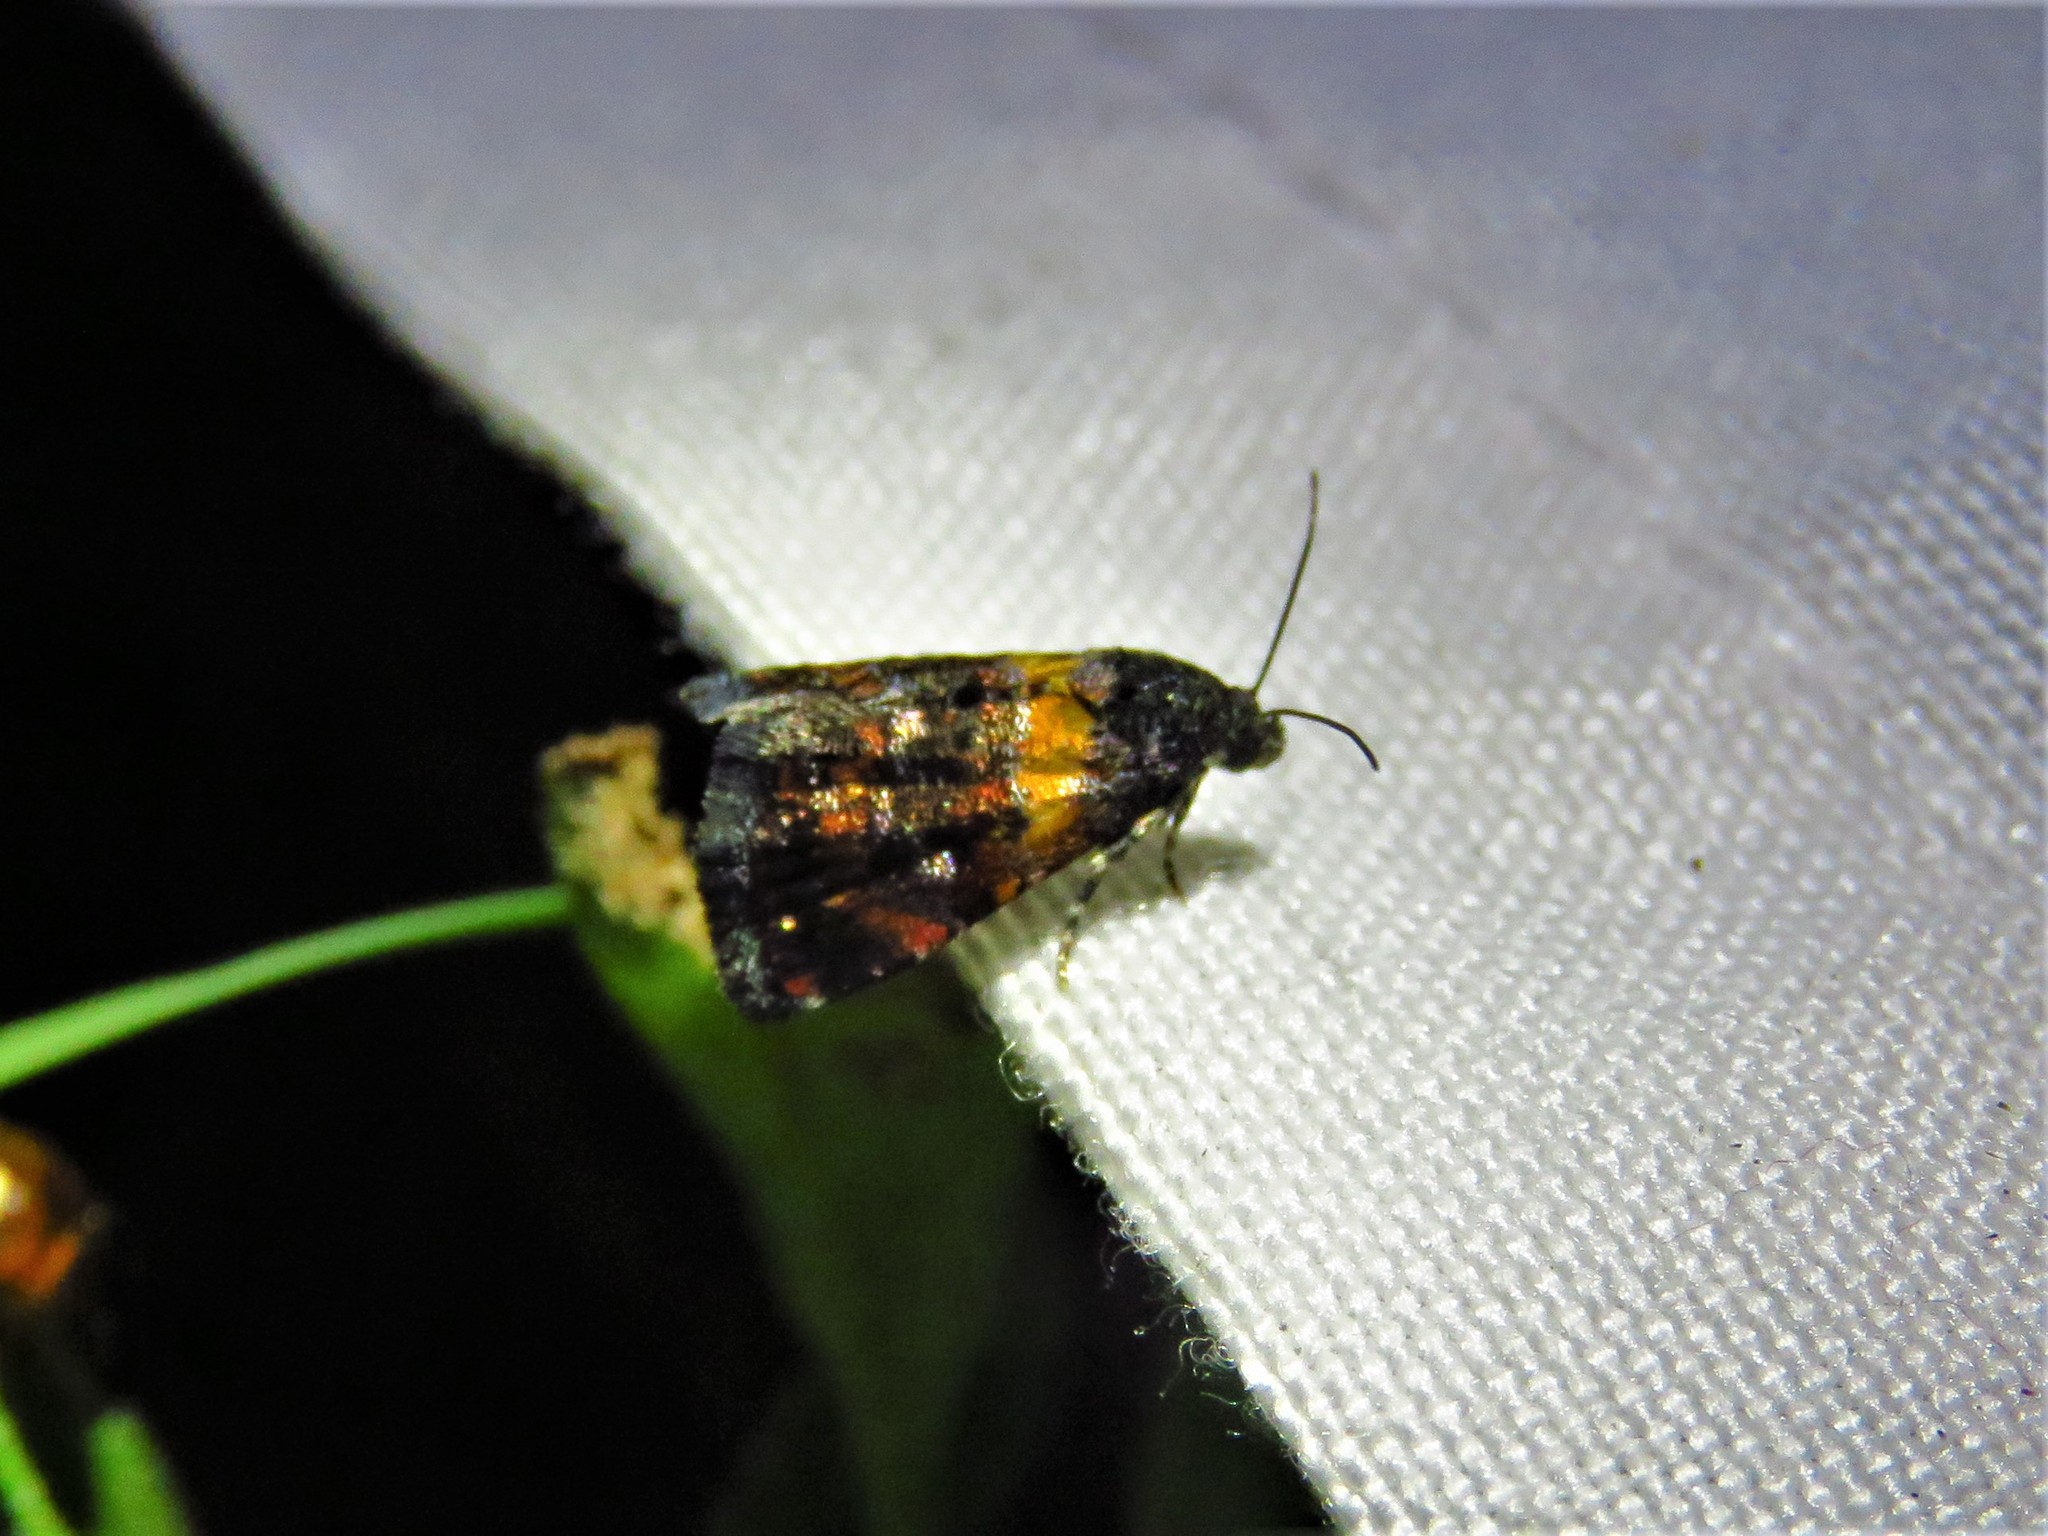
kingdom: Animalia
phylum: Arthropoda
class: Insecta
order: Lepidoptera
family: Noctuidae
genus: Tripudia
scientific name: Tripudia flavofasciata
